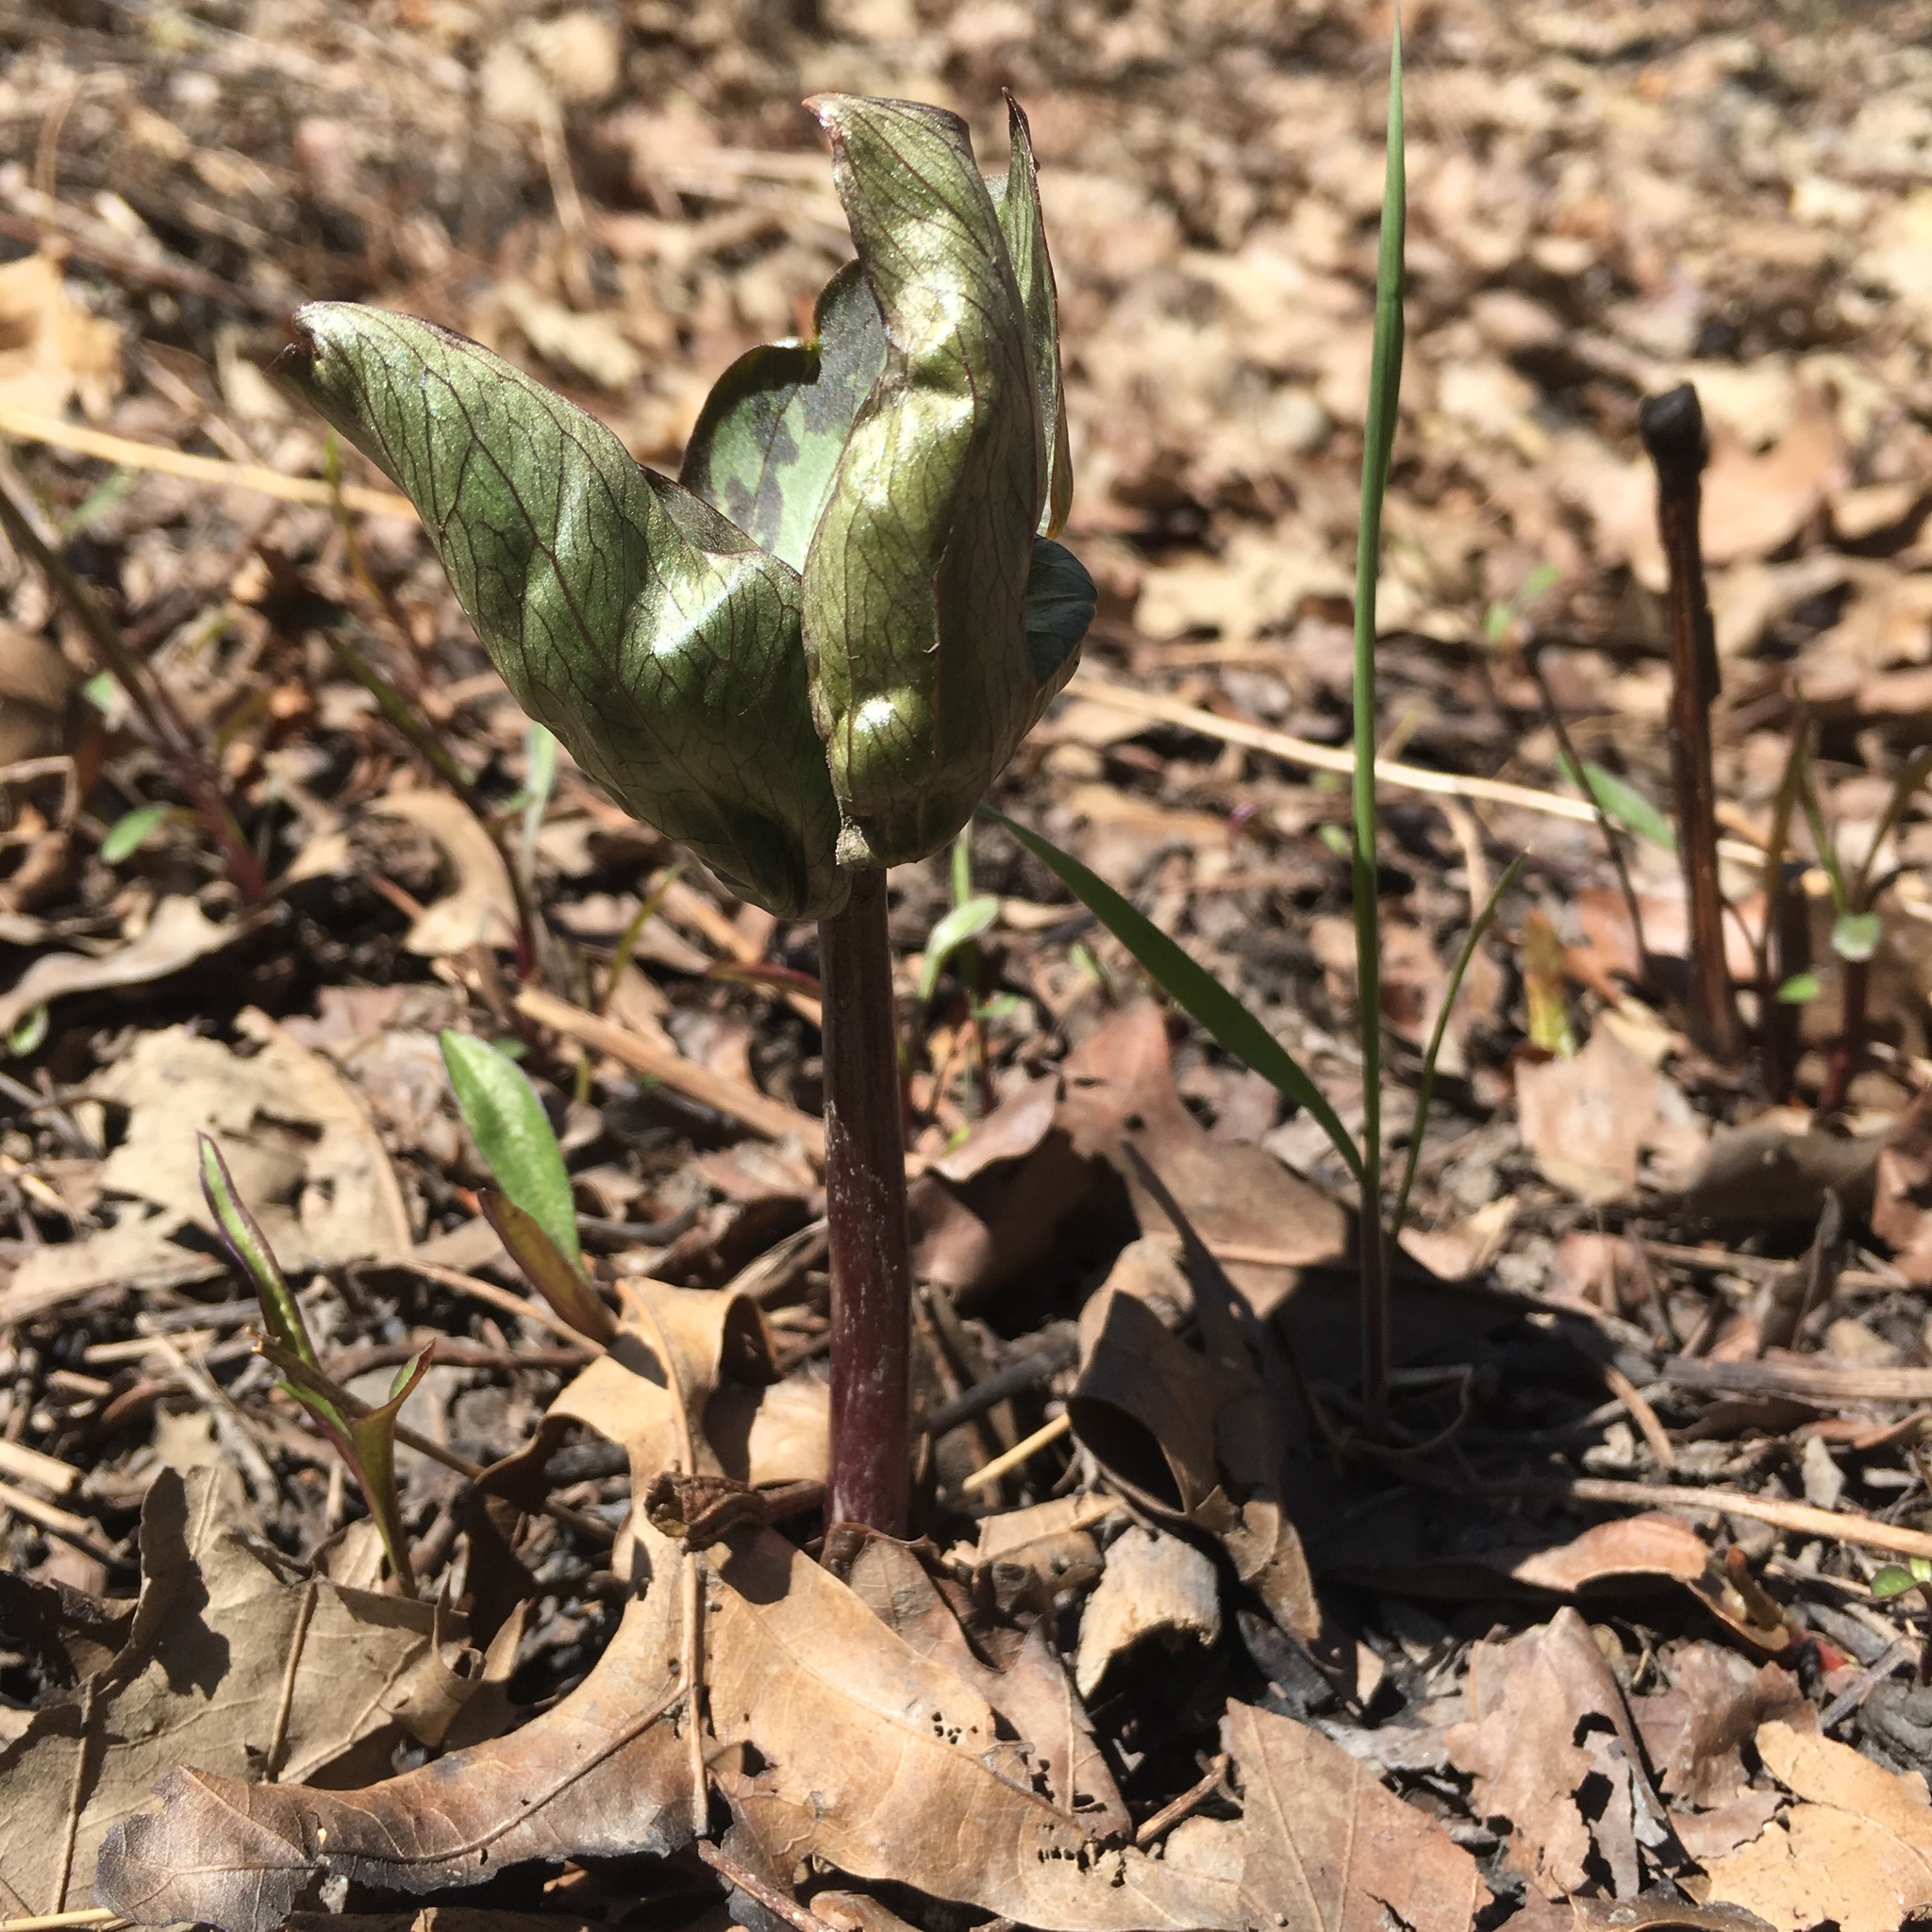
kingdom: Plantae
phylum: Tracheophyta
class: Liliopsida
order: Liliales
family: Melanthiaceae
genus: Trillium
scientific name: Trillium recurvatum
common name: Bloody butcher
